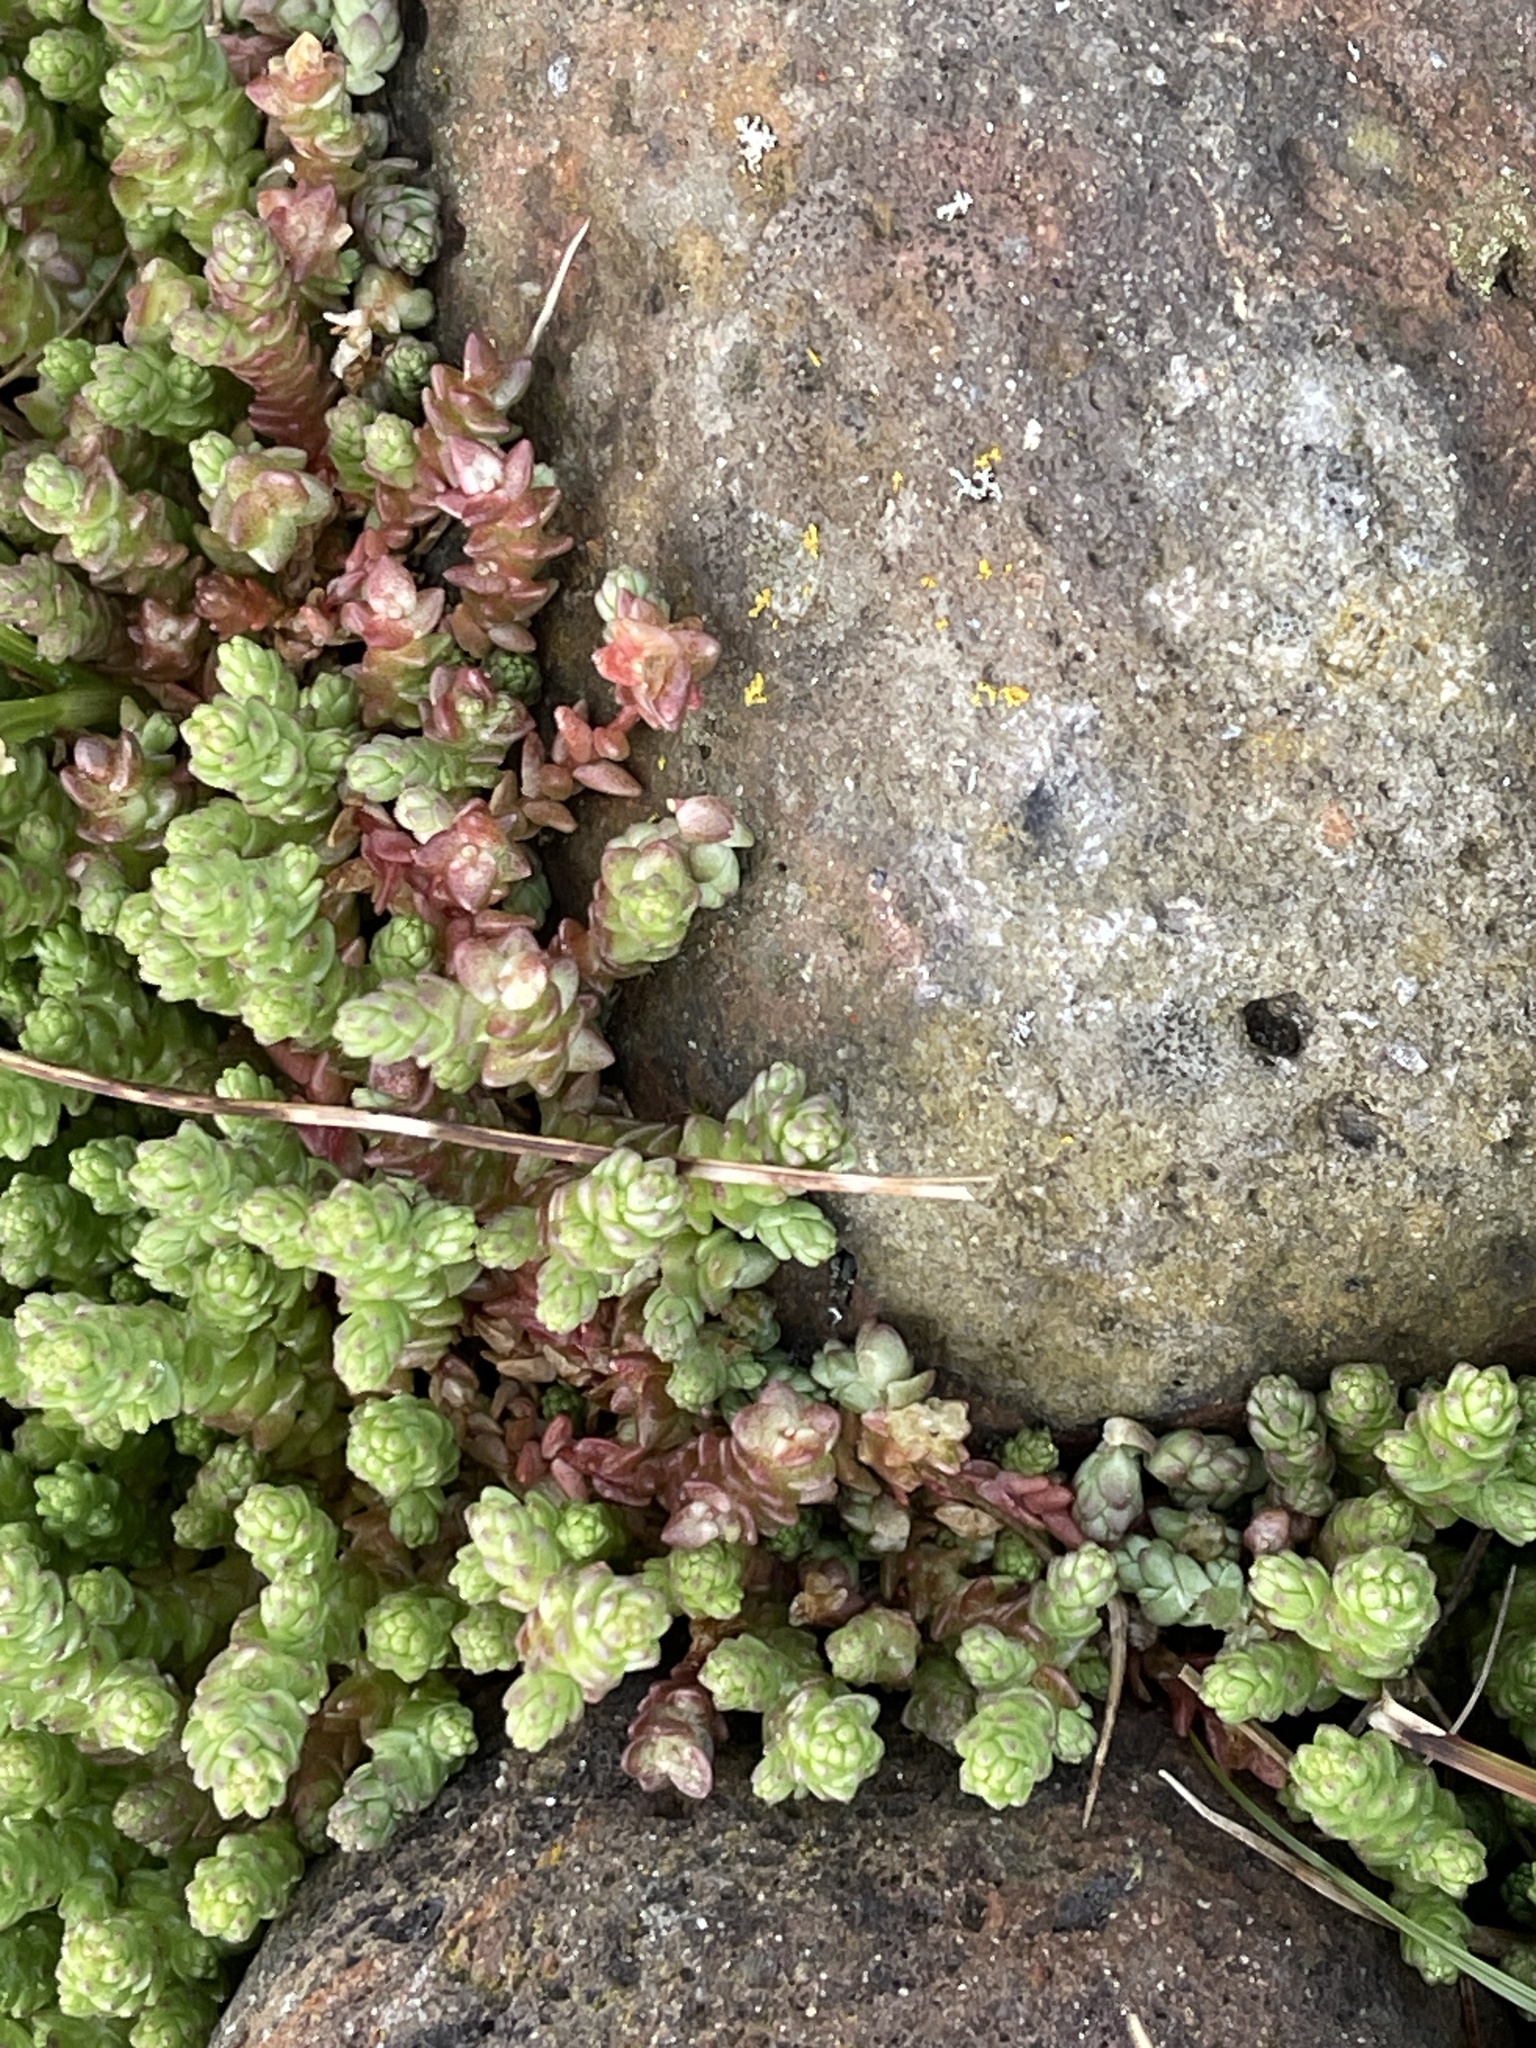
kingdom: Plantae
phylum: Tracheophyta
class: Magnoliopsida
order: Saxifragales
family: Crassulaceae
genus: Sedum
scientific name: Sedum acre
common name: Biting stonecrop
